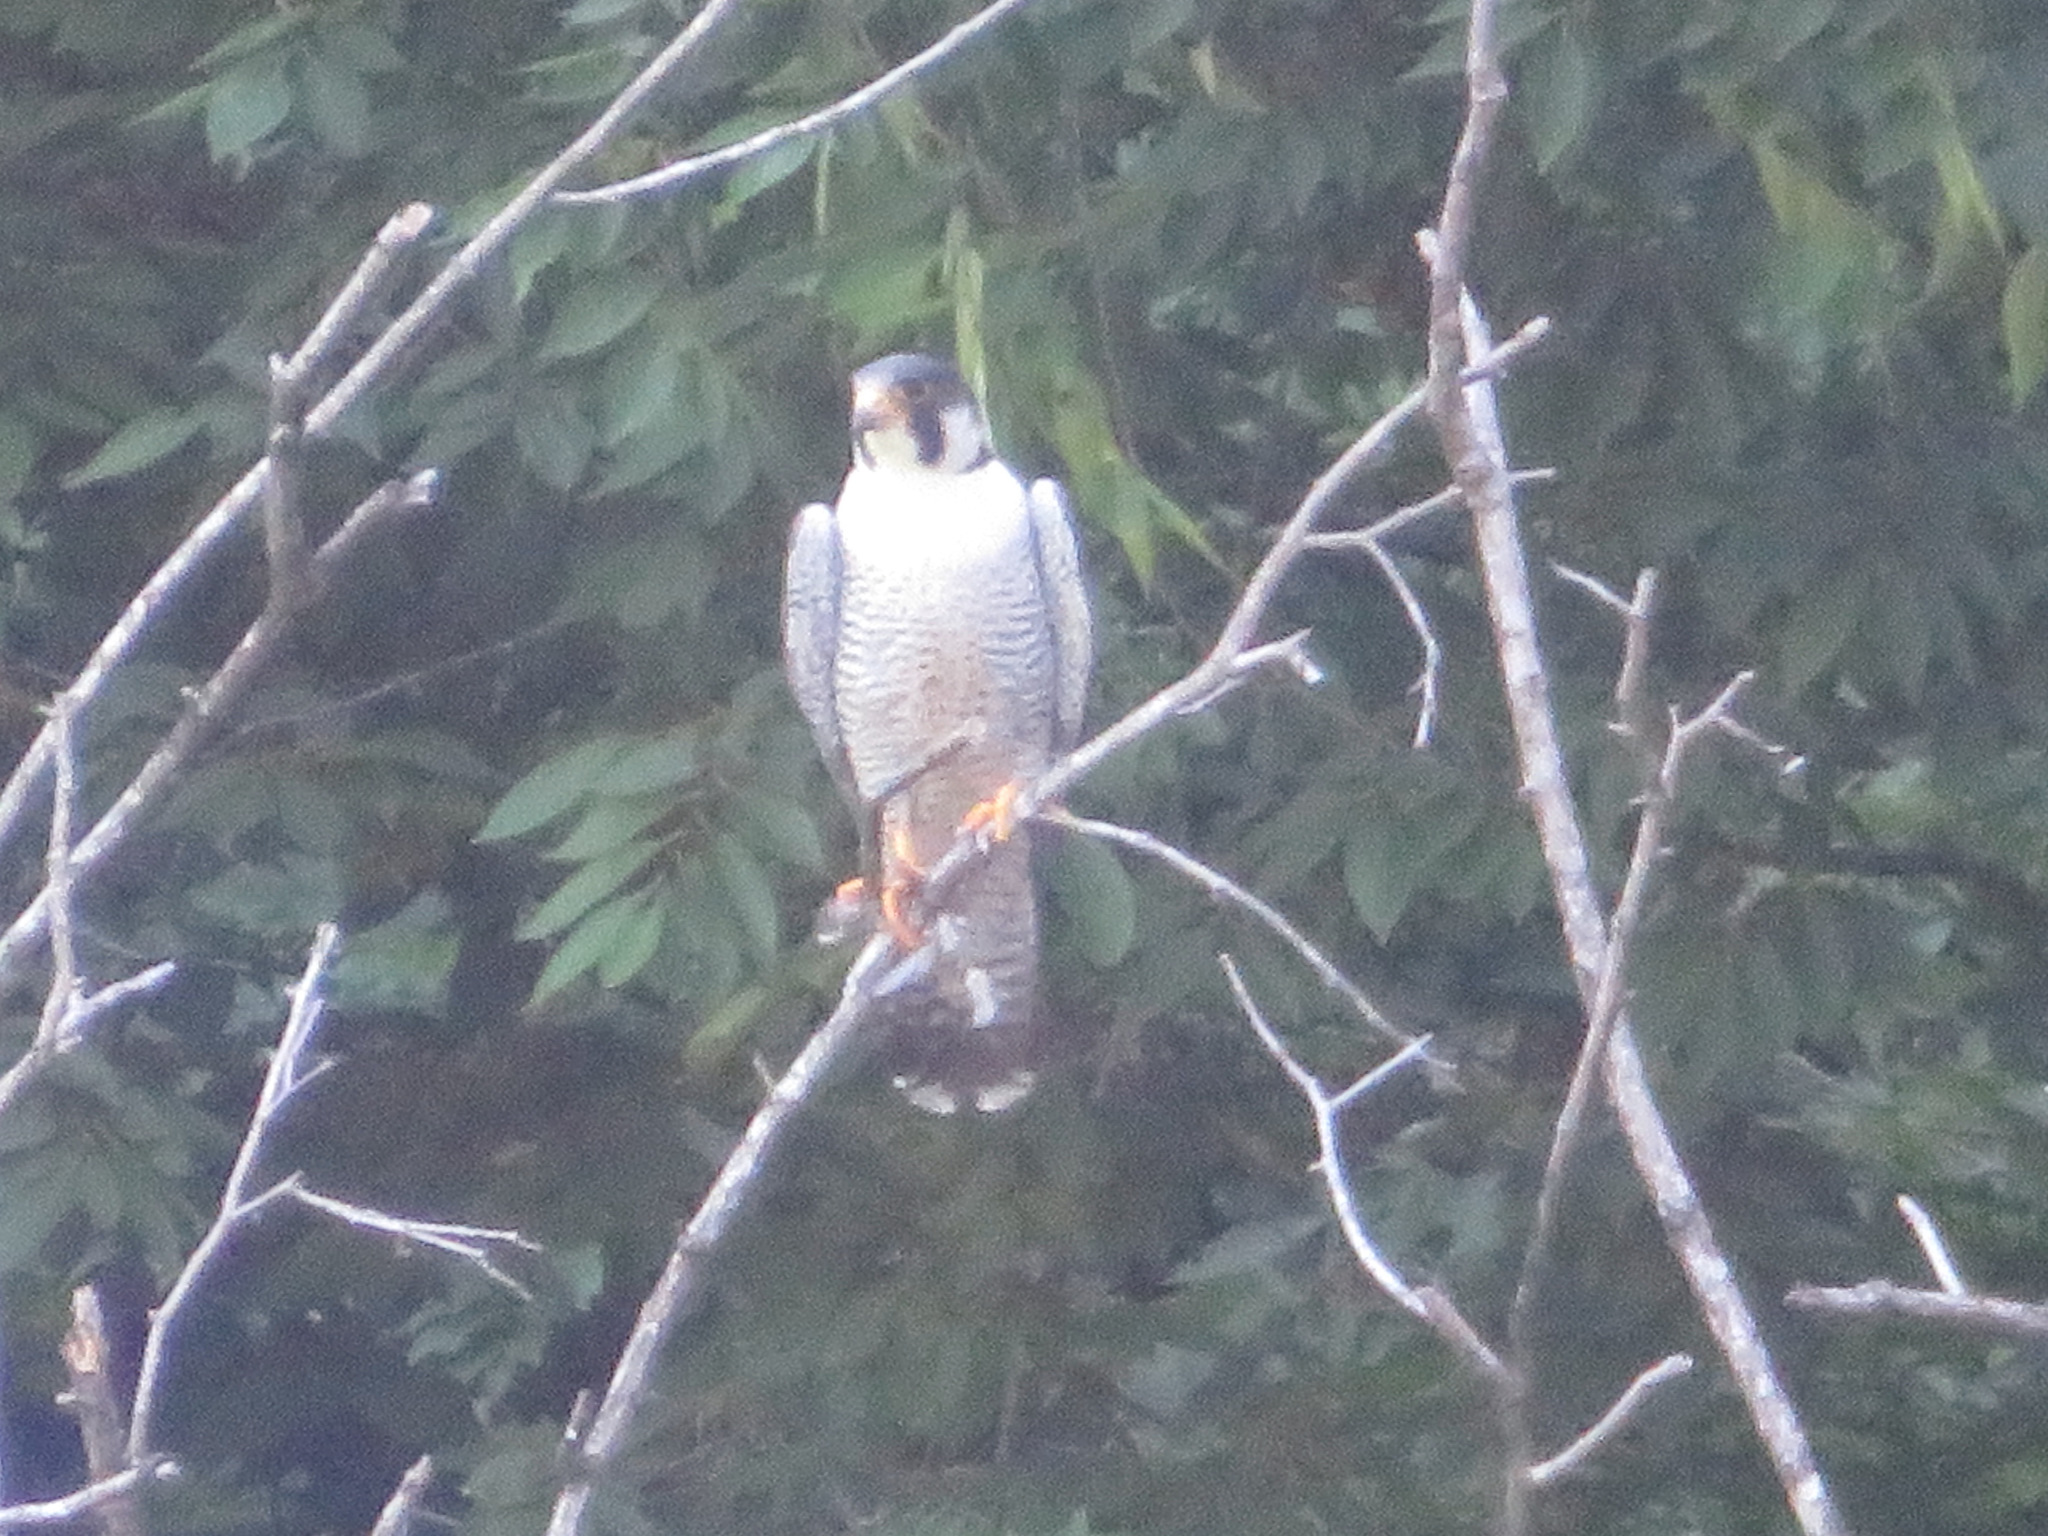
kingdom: Animalia
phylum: Chordata
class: Aves
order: Falconiformes
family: Falconidae
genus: Falco
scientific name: Falco peregrinus
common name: Peregrine falcon
